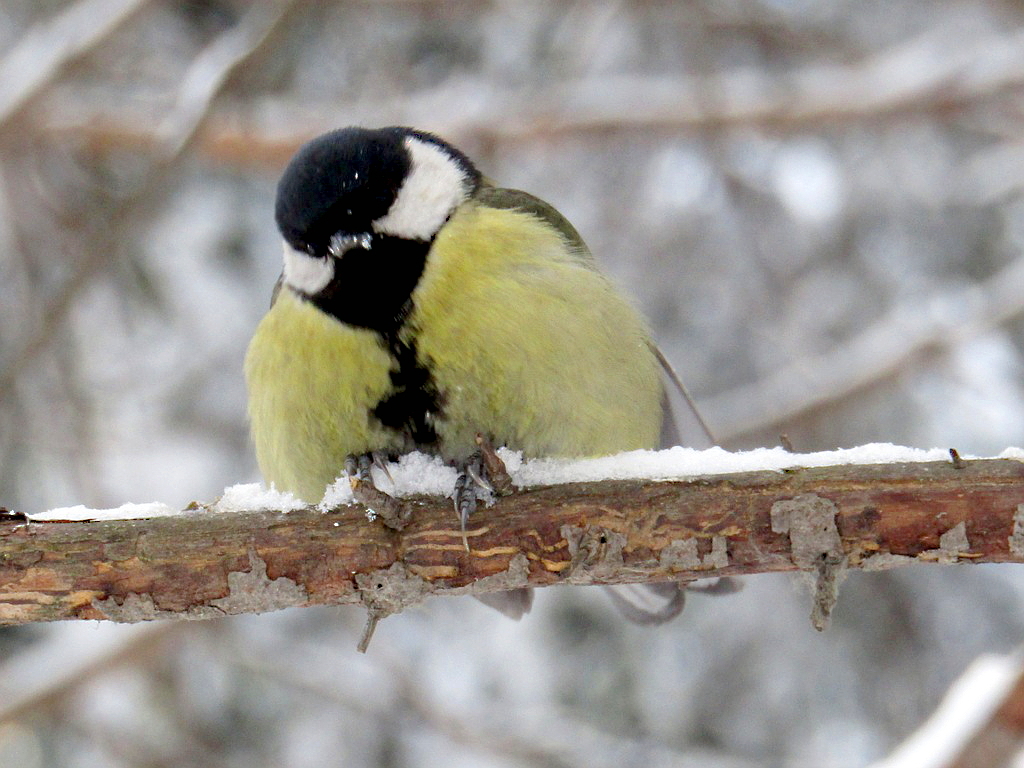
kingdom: Animalia
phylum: Chordata
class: Aves
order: Passeriformes
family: Paridae
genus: Parus
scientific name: Parus major
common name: Great tit
